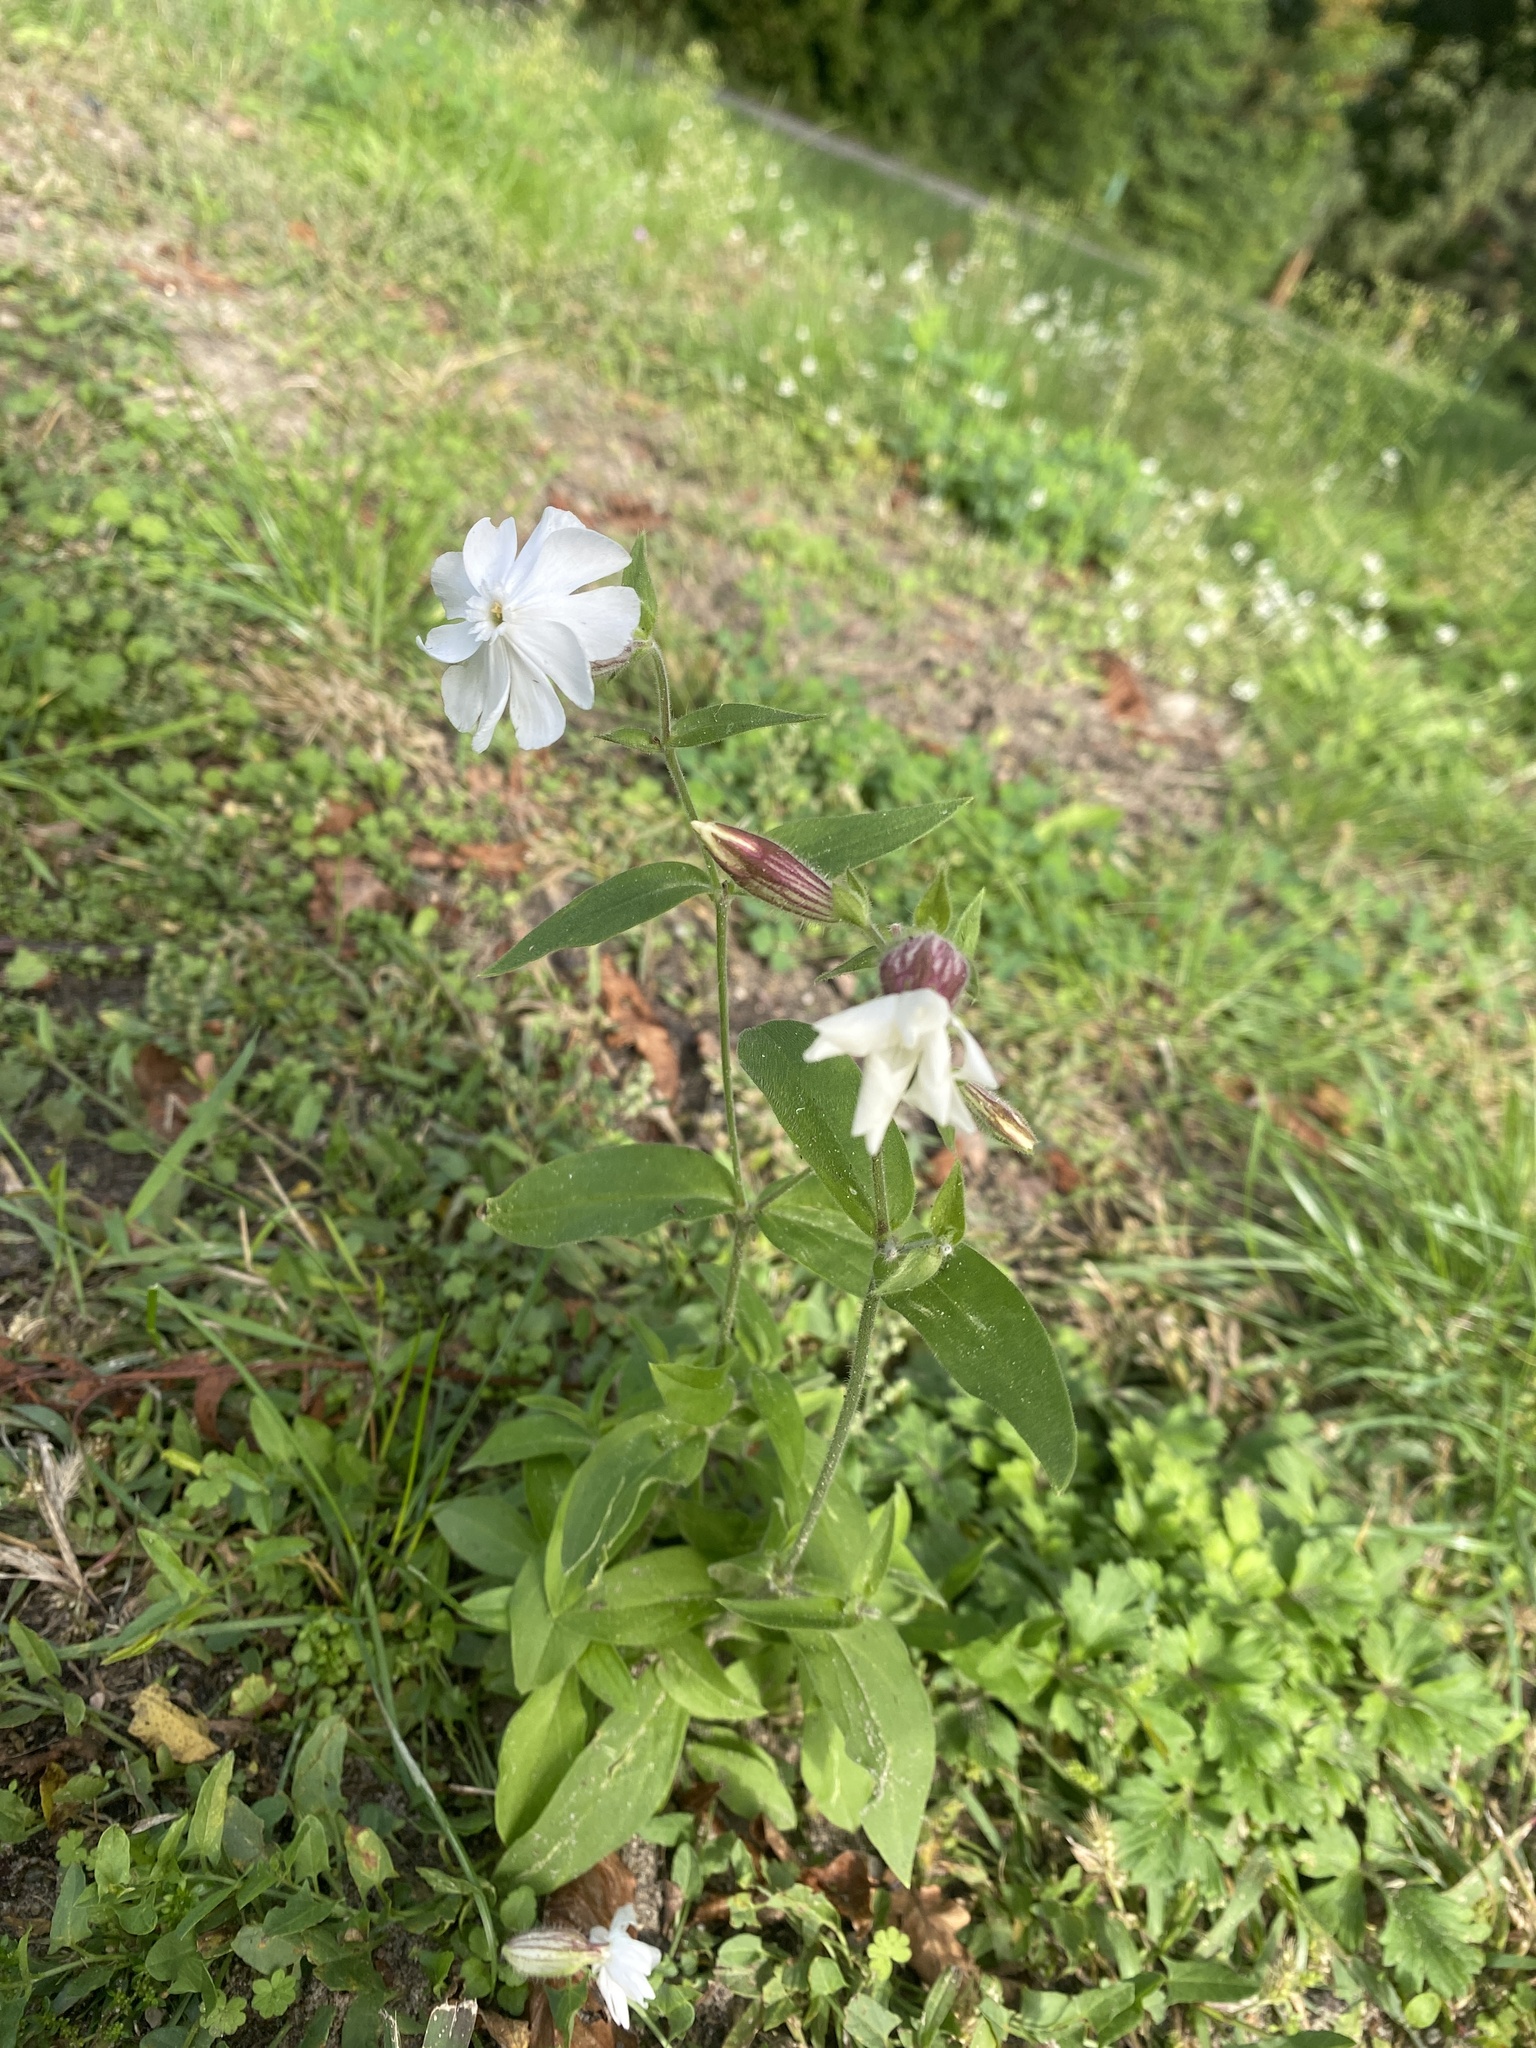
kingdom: Plantae
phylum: Tracheophyta
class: Magnoliopsida
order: Caryophyllales
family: Caryophyllaceae
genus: Silene
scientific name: Silene latifolia
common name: White campion
